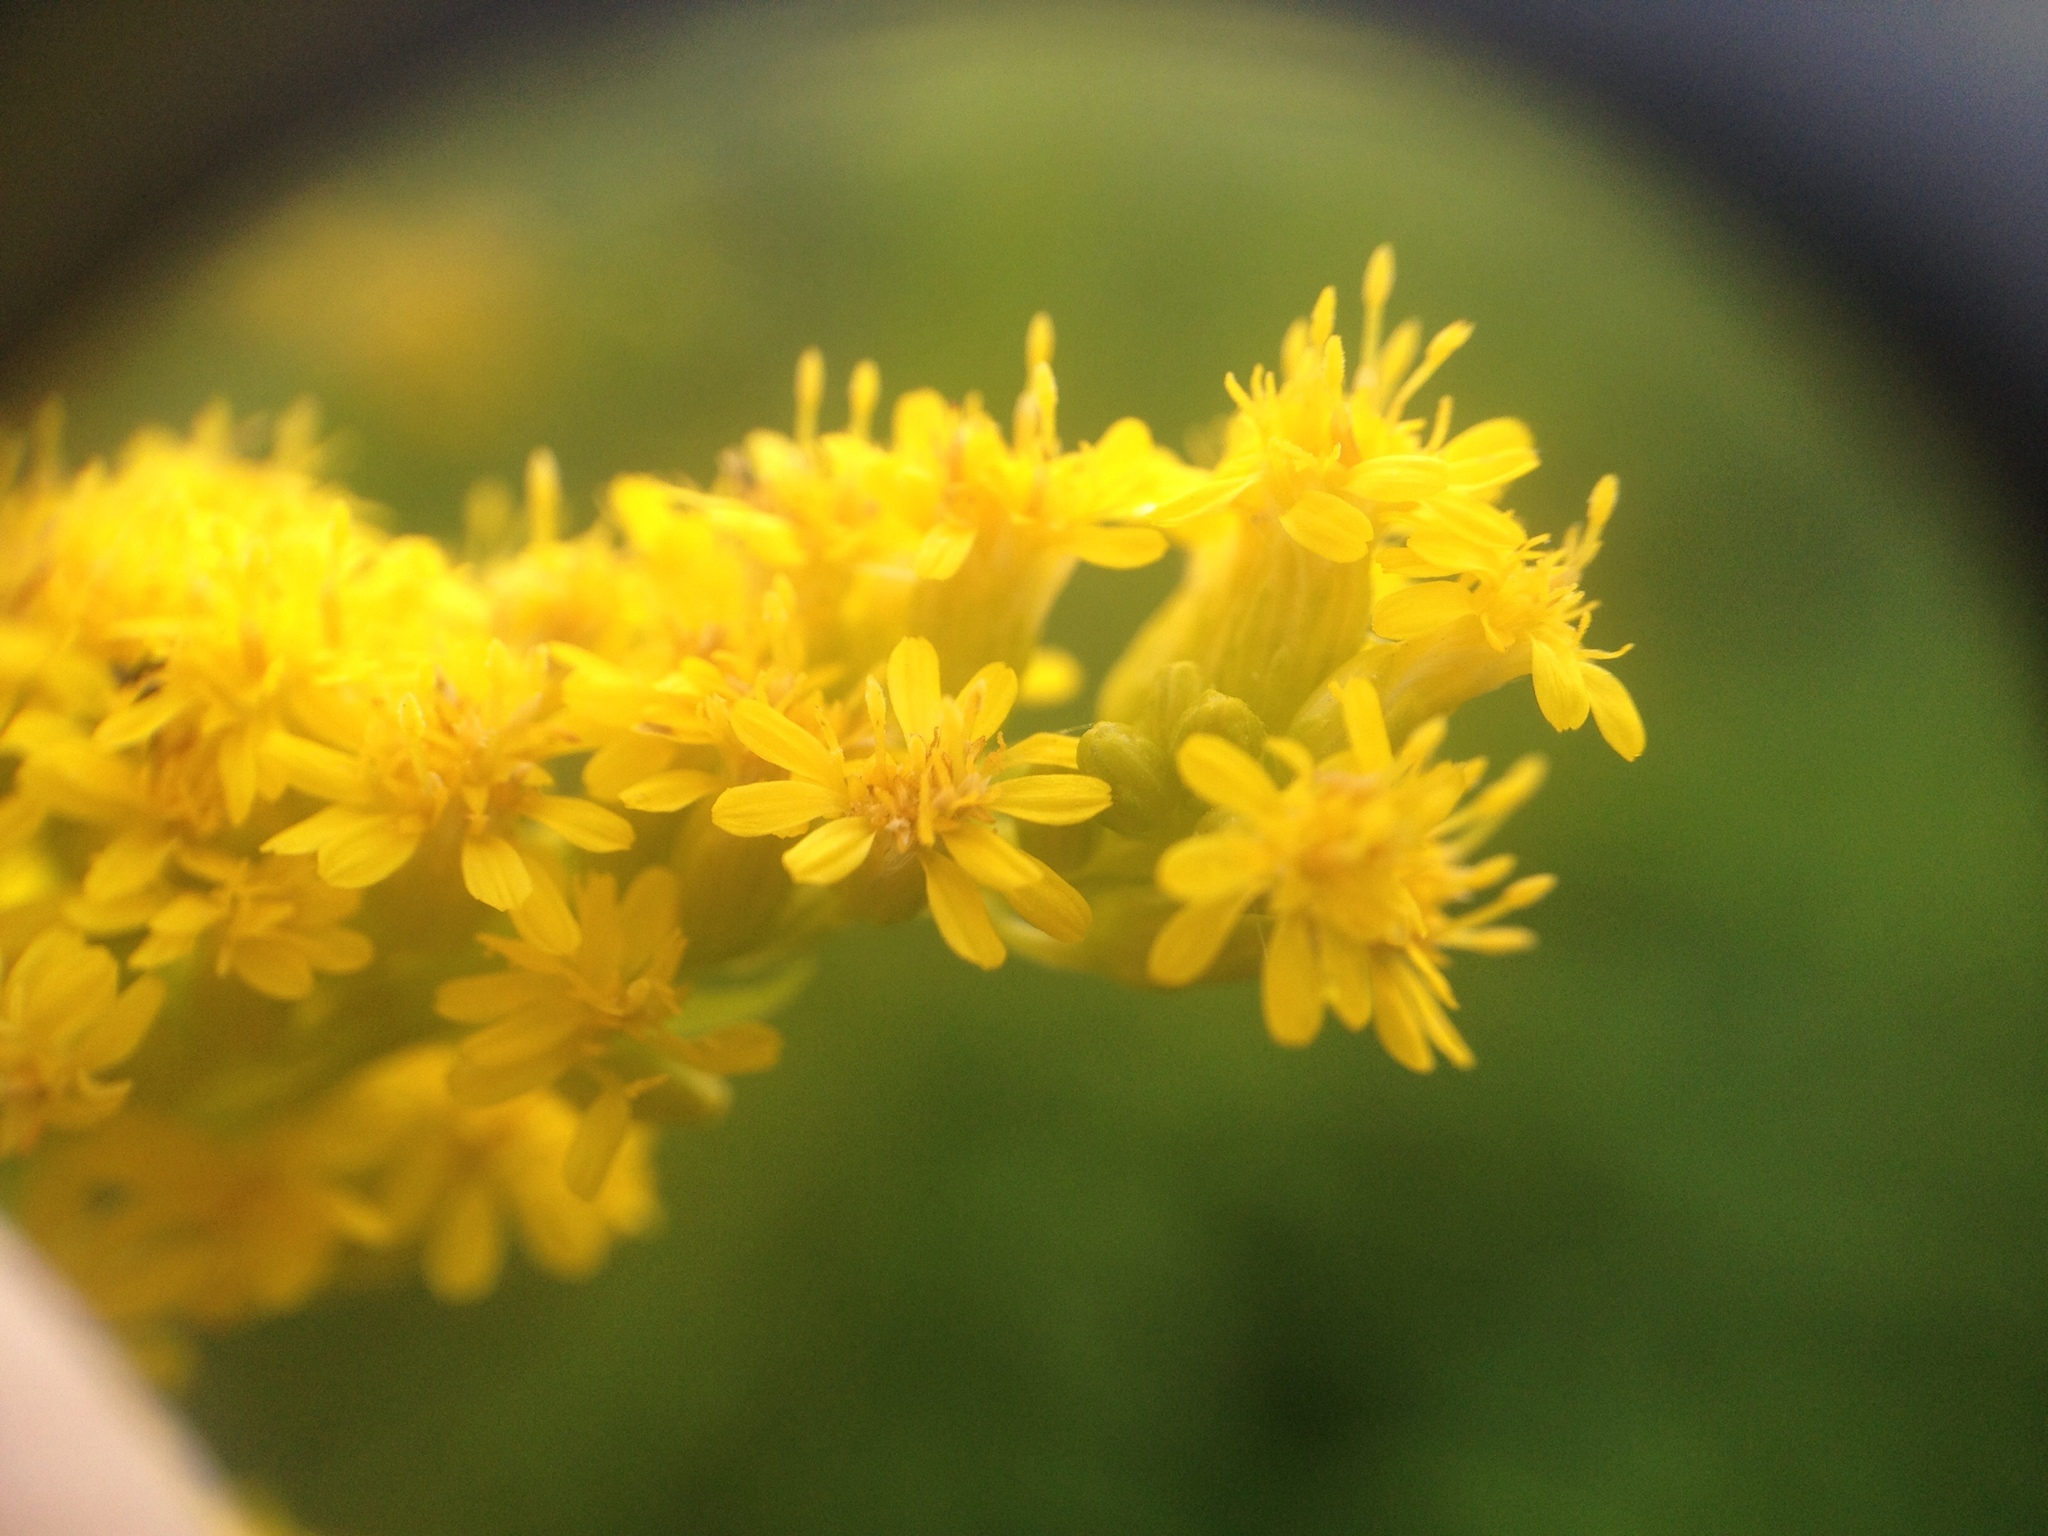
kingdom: Plantae
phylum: Tracheophyta
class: Magnoliopsida
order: Asterales
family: Asteraceae
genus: Solidago
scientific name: Solidago gigantea
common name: Giant goldenrod
